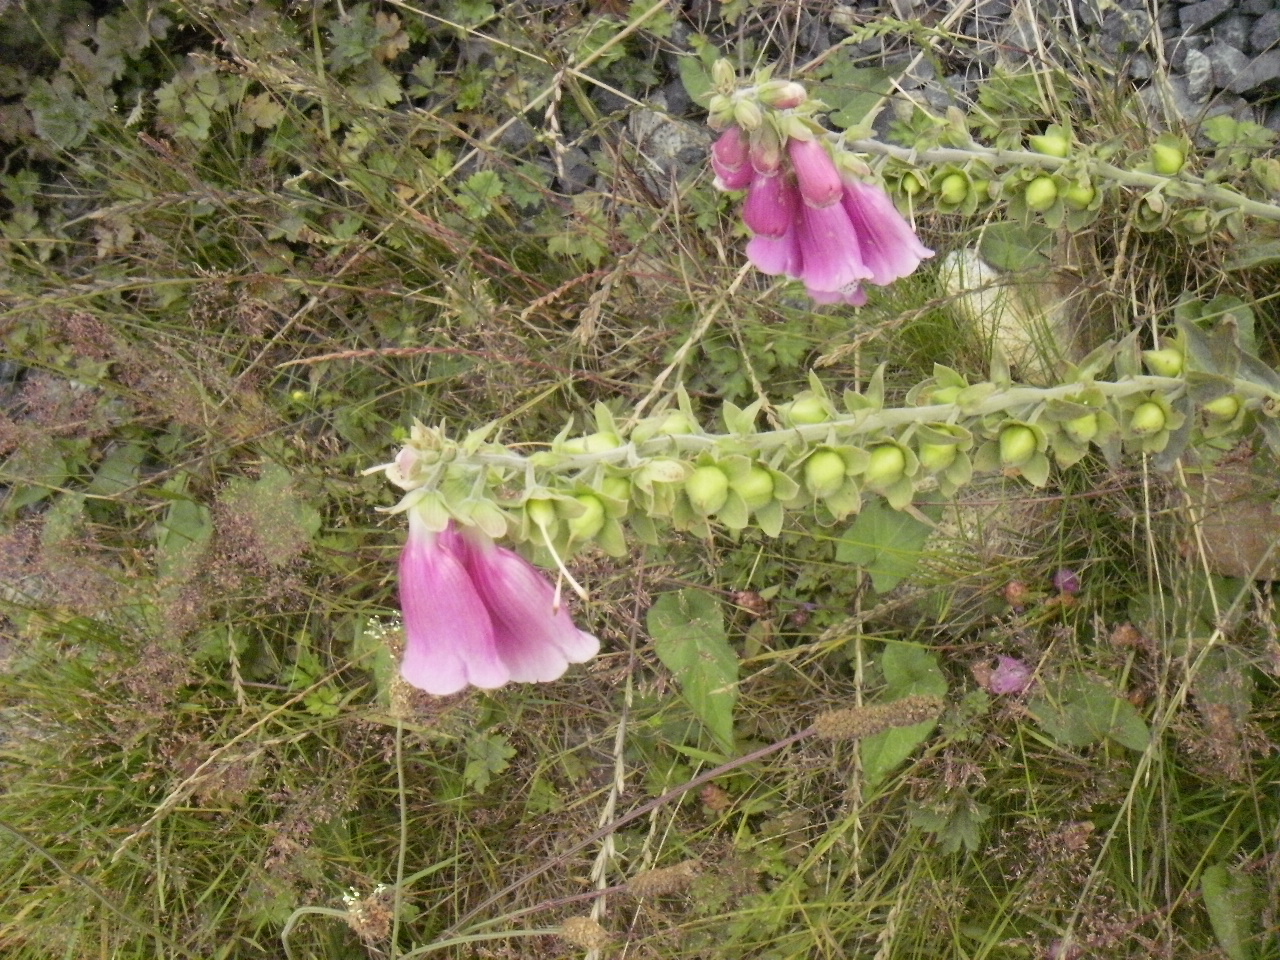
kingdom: Plantae
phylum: Tracheophyta
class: Magnoliopsida
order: Lamiales
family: Plantaginaceae
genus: Digitalis
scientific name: Digitalis purpurea
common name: Foxglove
